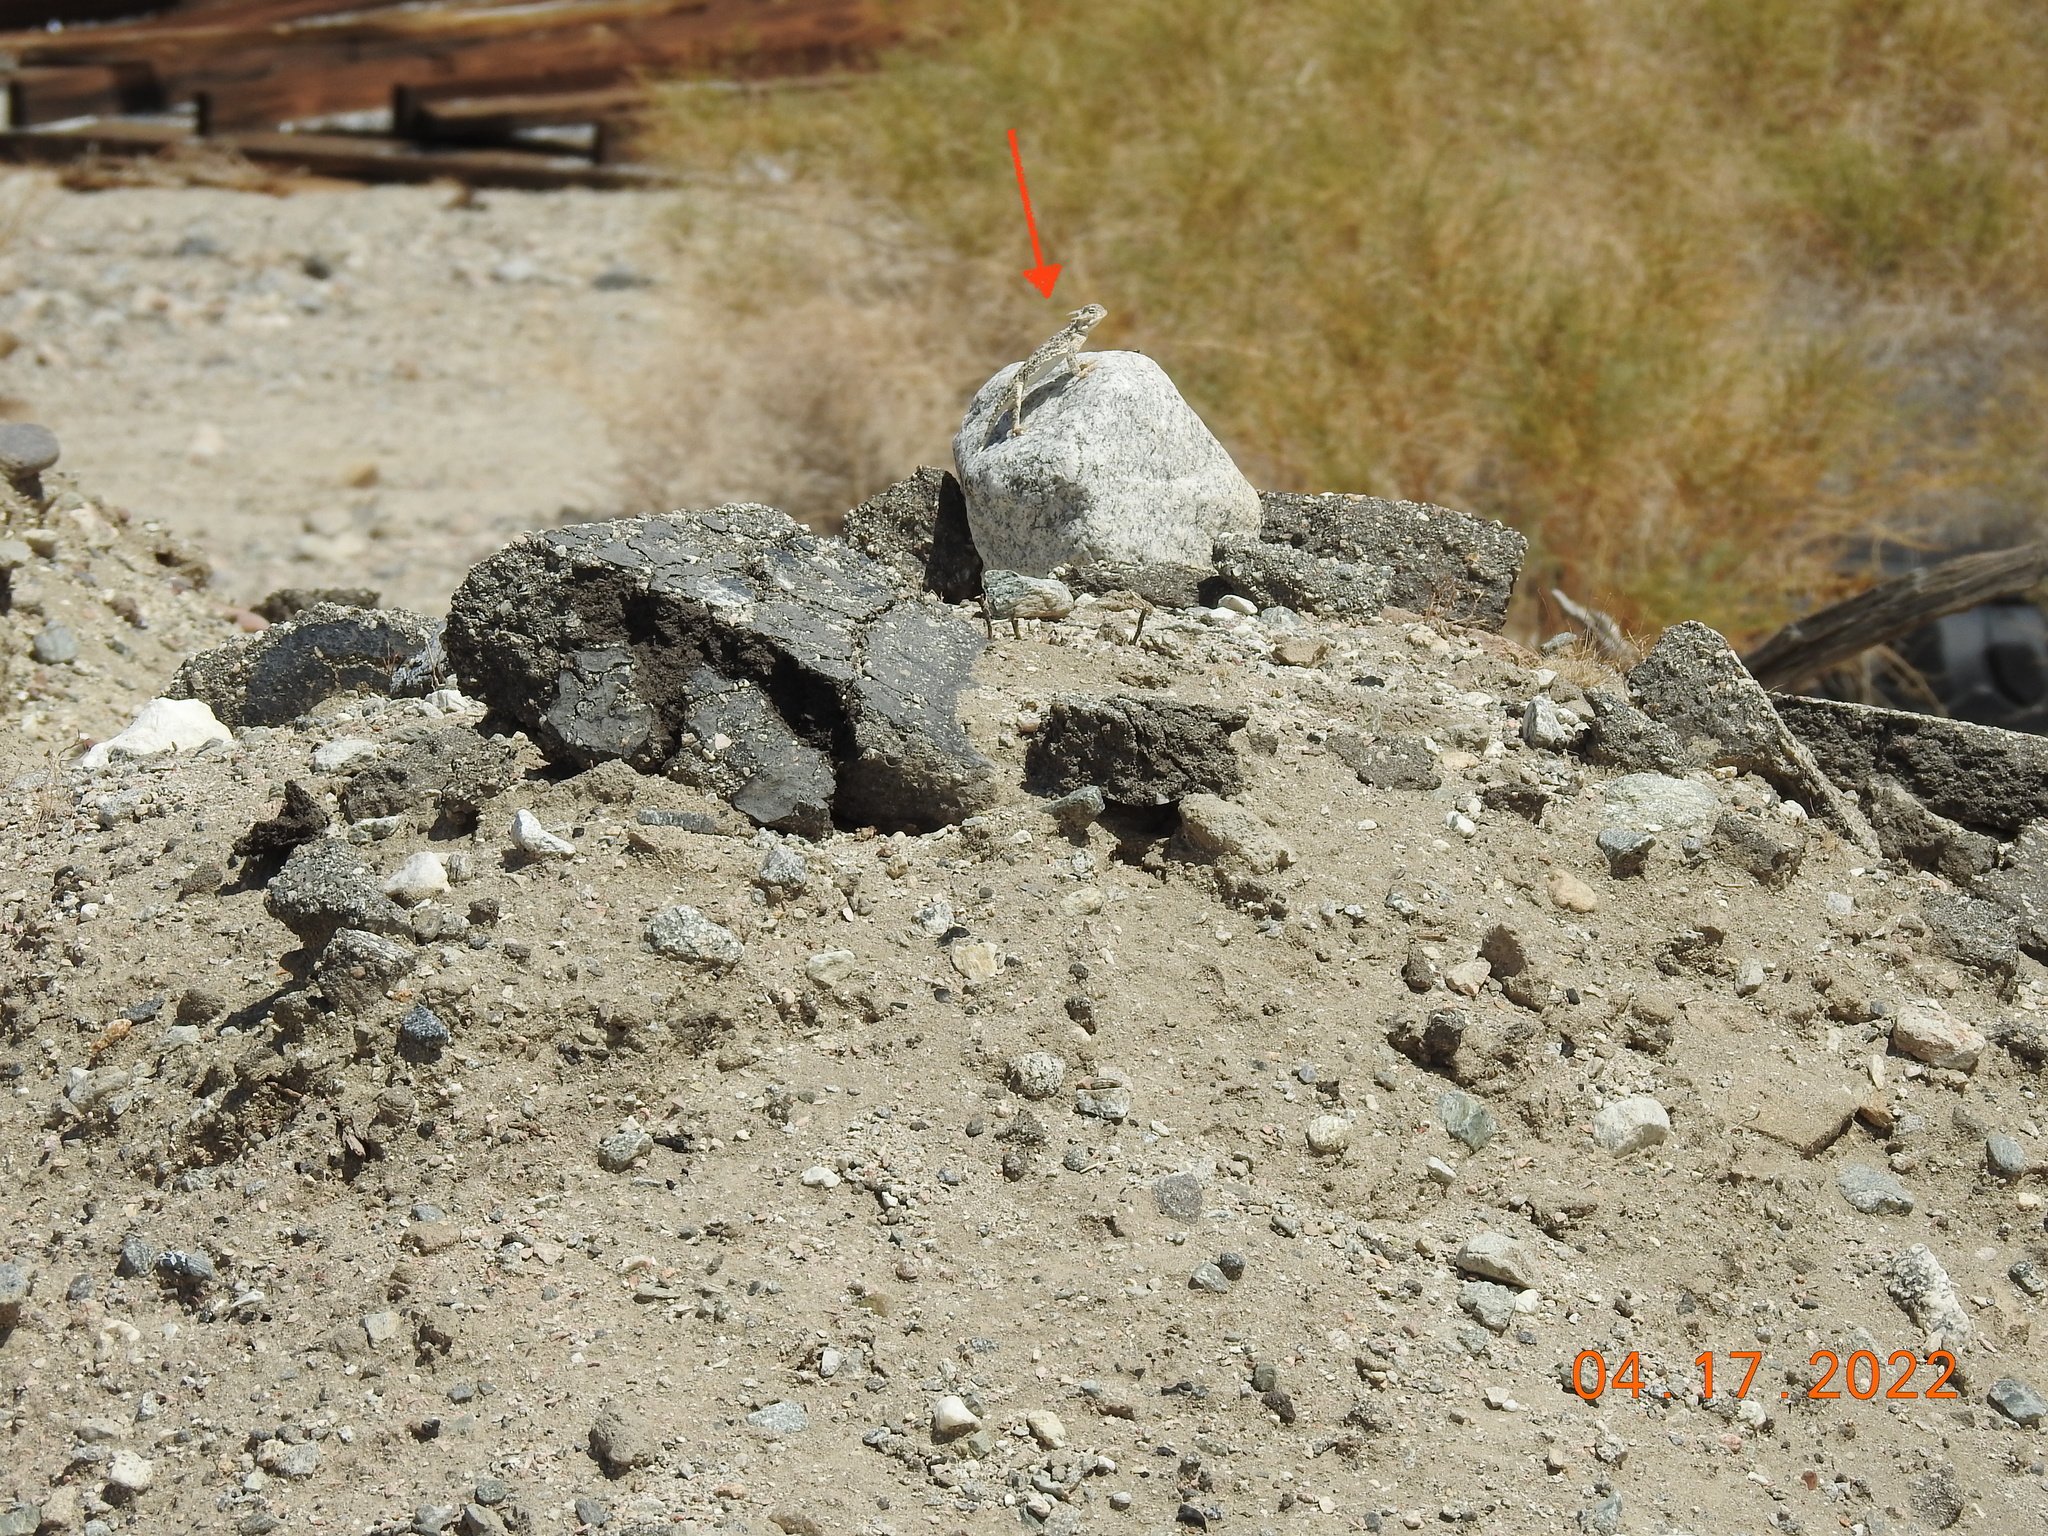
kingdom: Animalia
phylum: Chordata
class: Squamata
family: Phrynosomatidae
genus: Phrynosoma
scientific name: Phrynosoma platyrhinos
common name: Desert horned lizard
